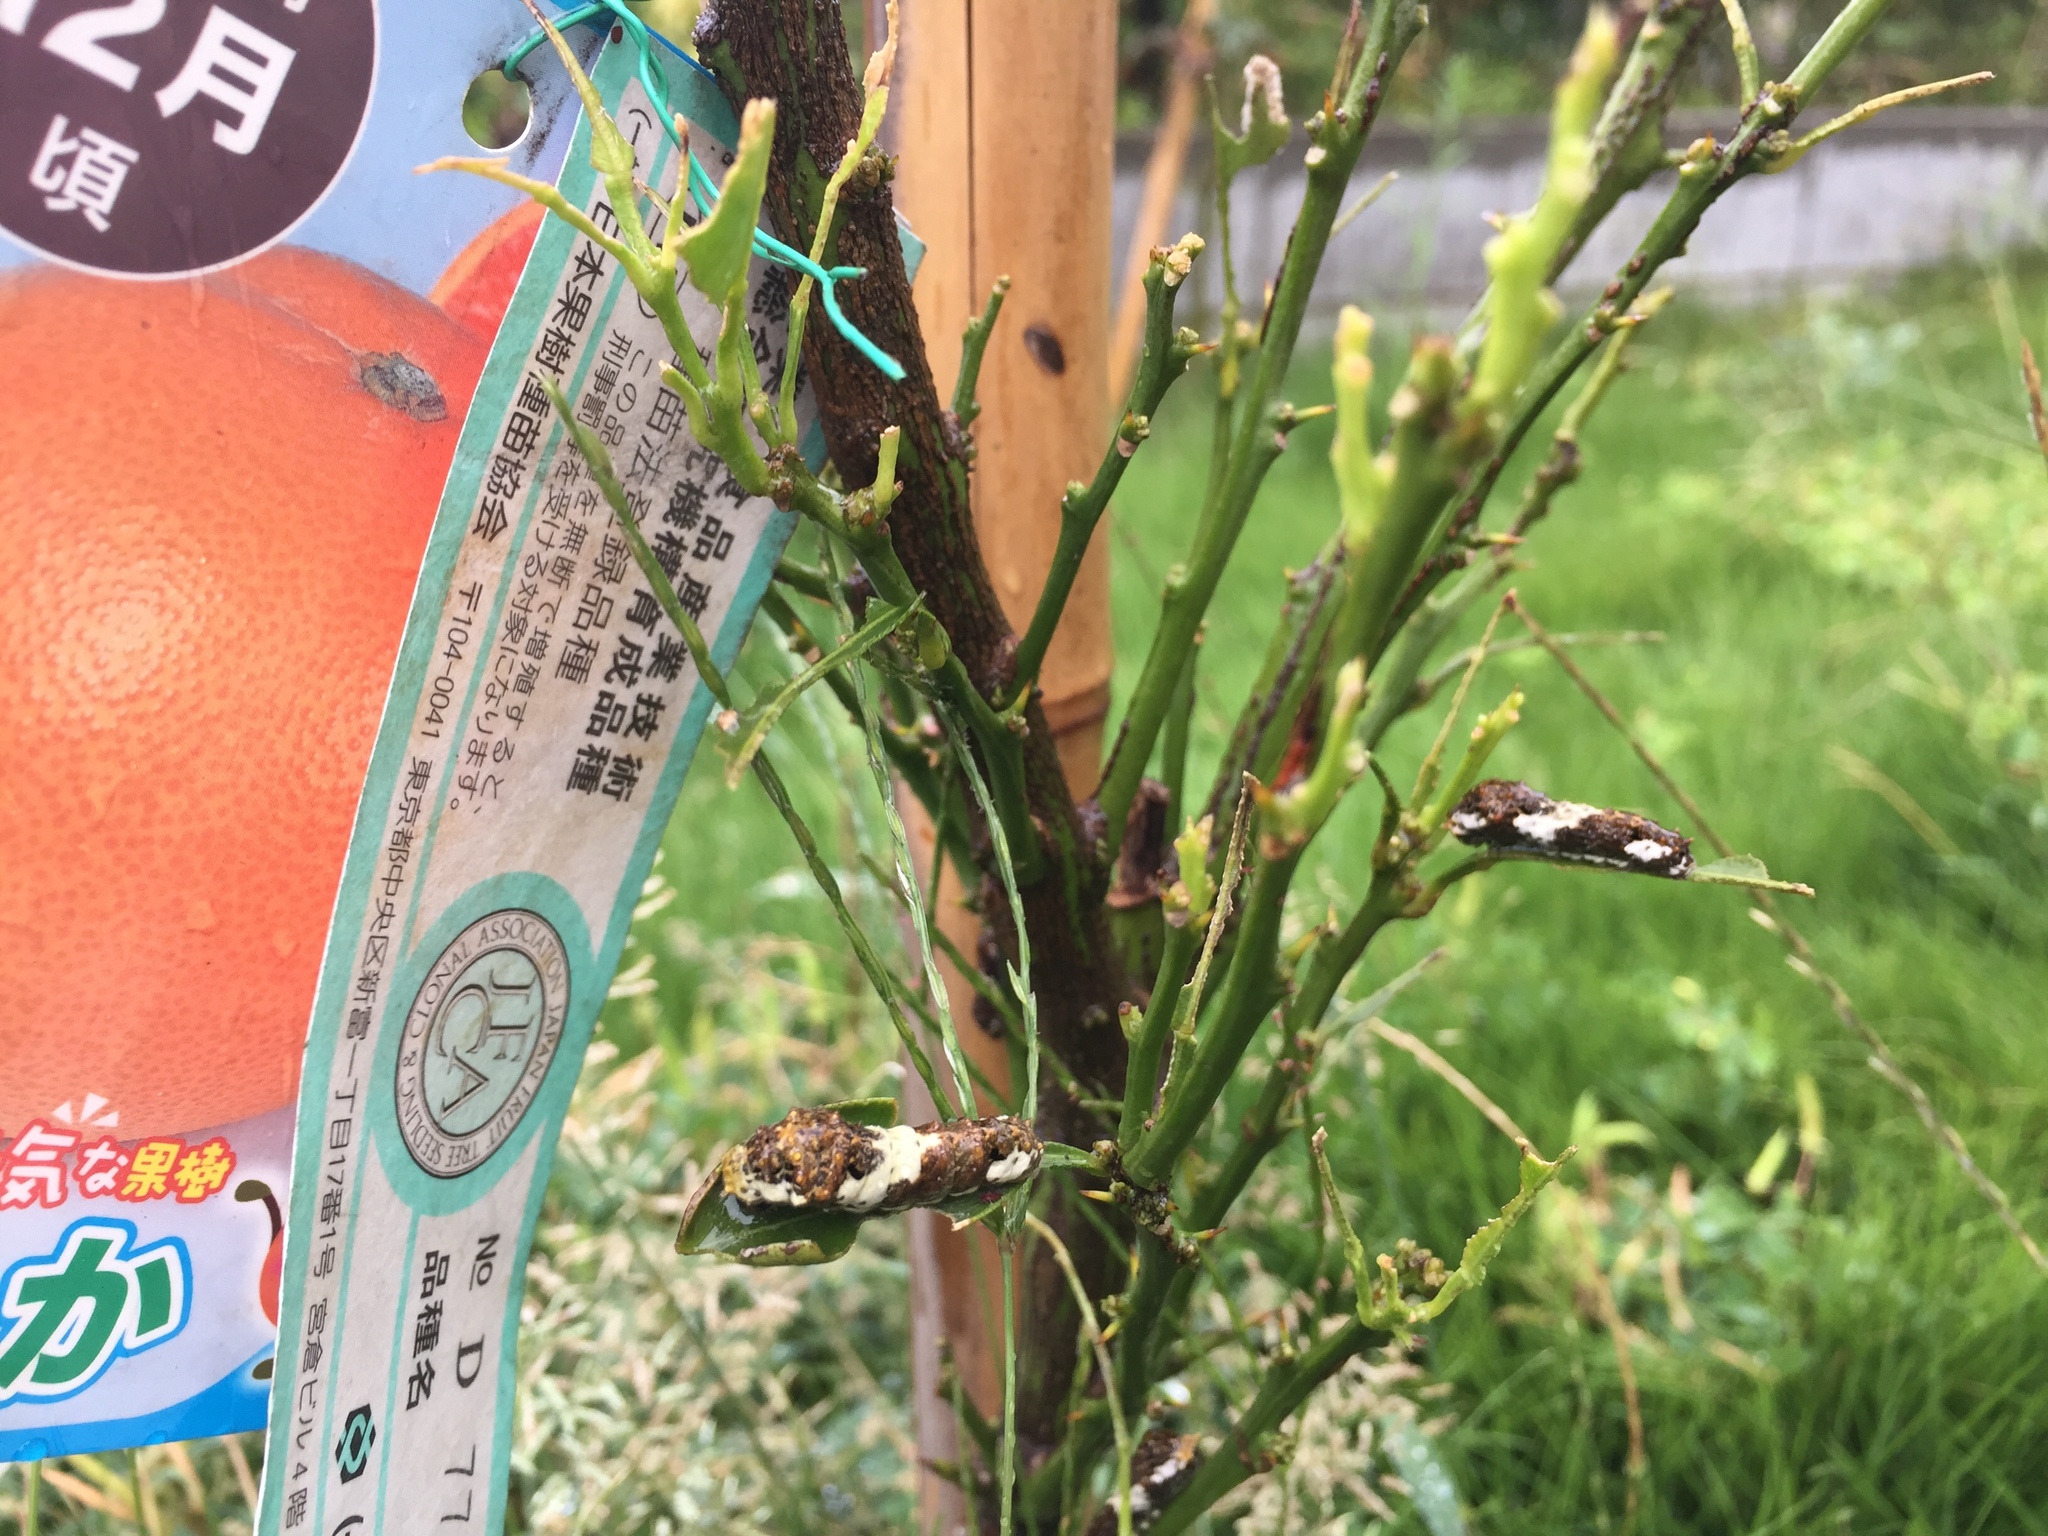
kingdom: Animalia
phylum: Arthropoda
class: Insecta
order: Lepidoptera
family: Papilionidae
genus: Papilio
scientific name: Papilio xuthus
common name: Asian swallowtail
